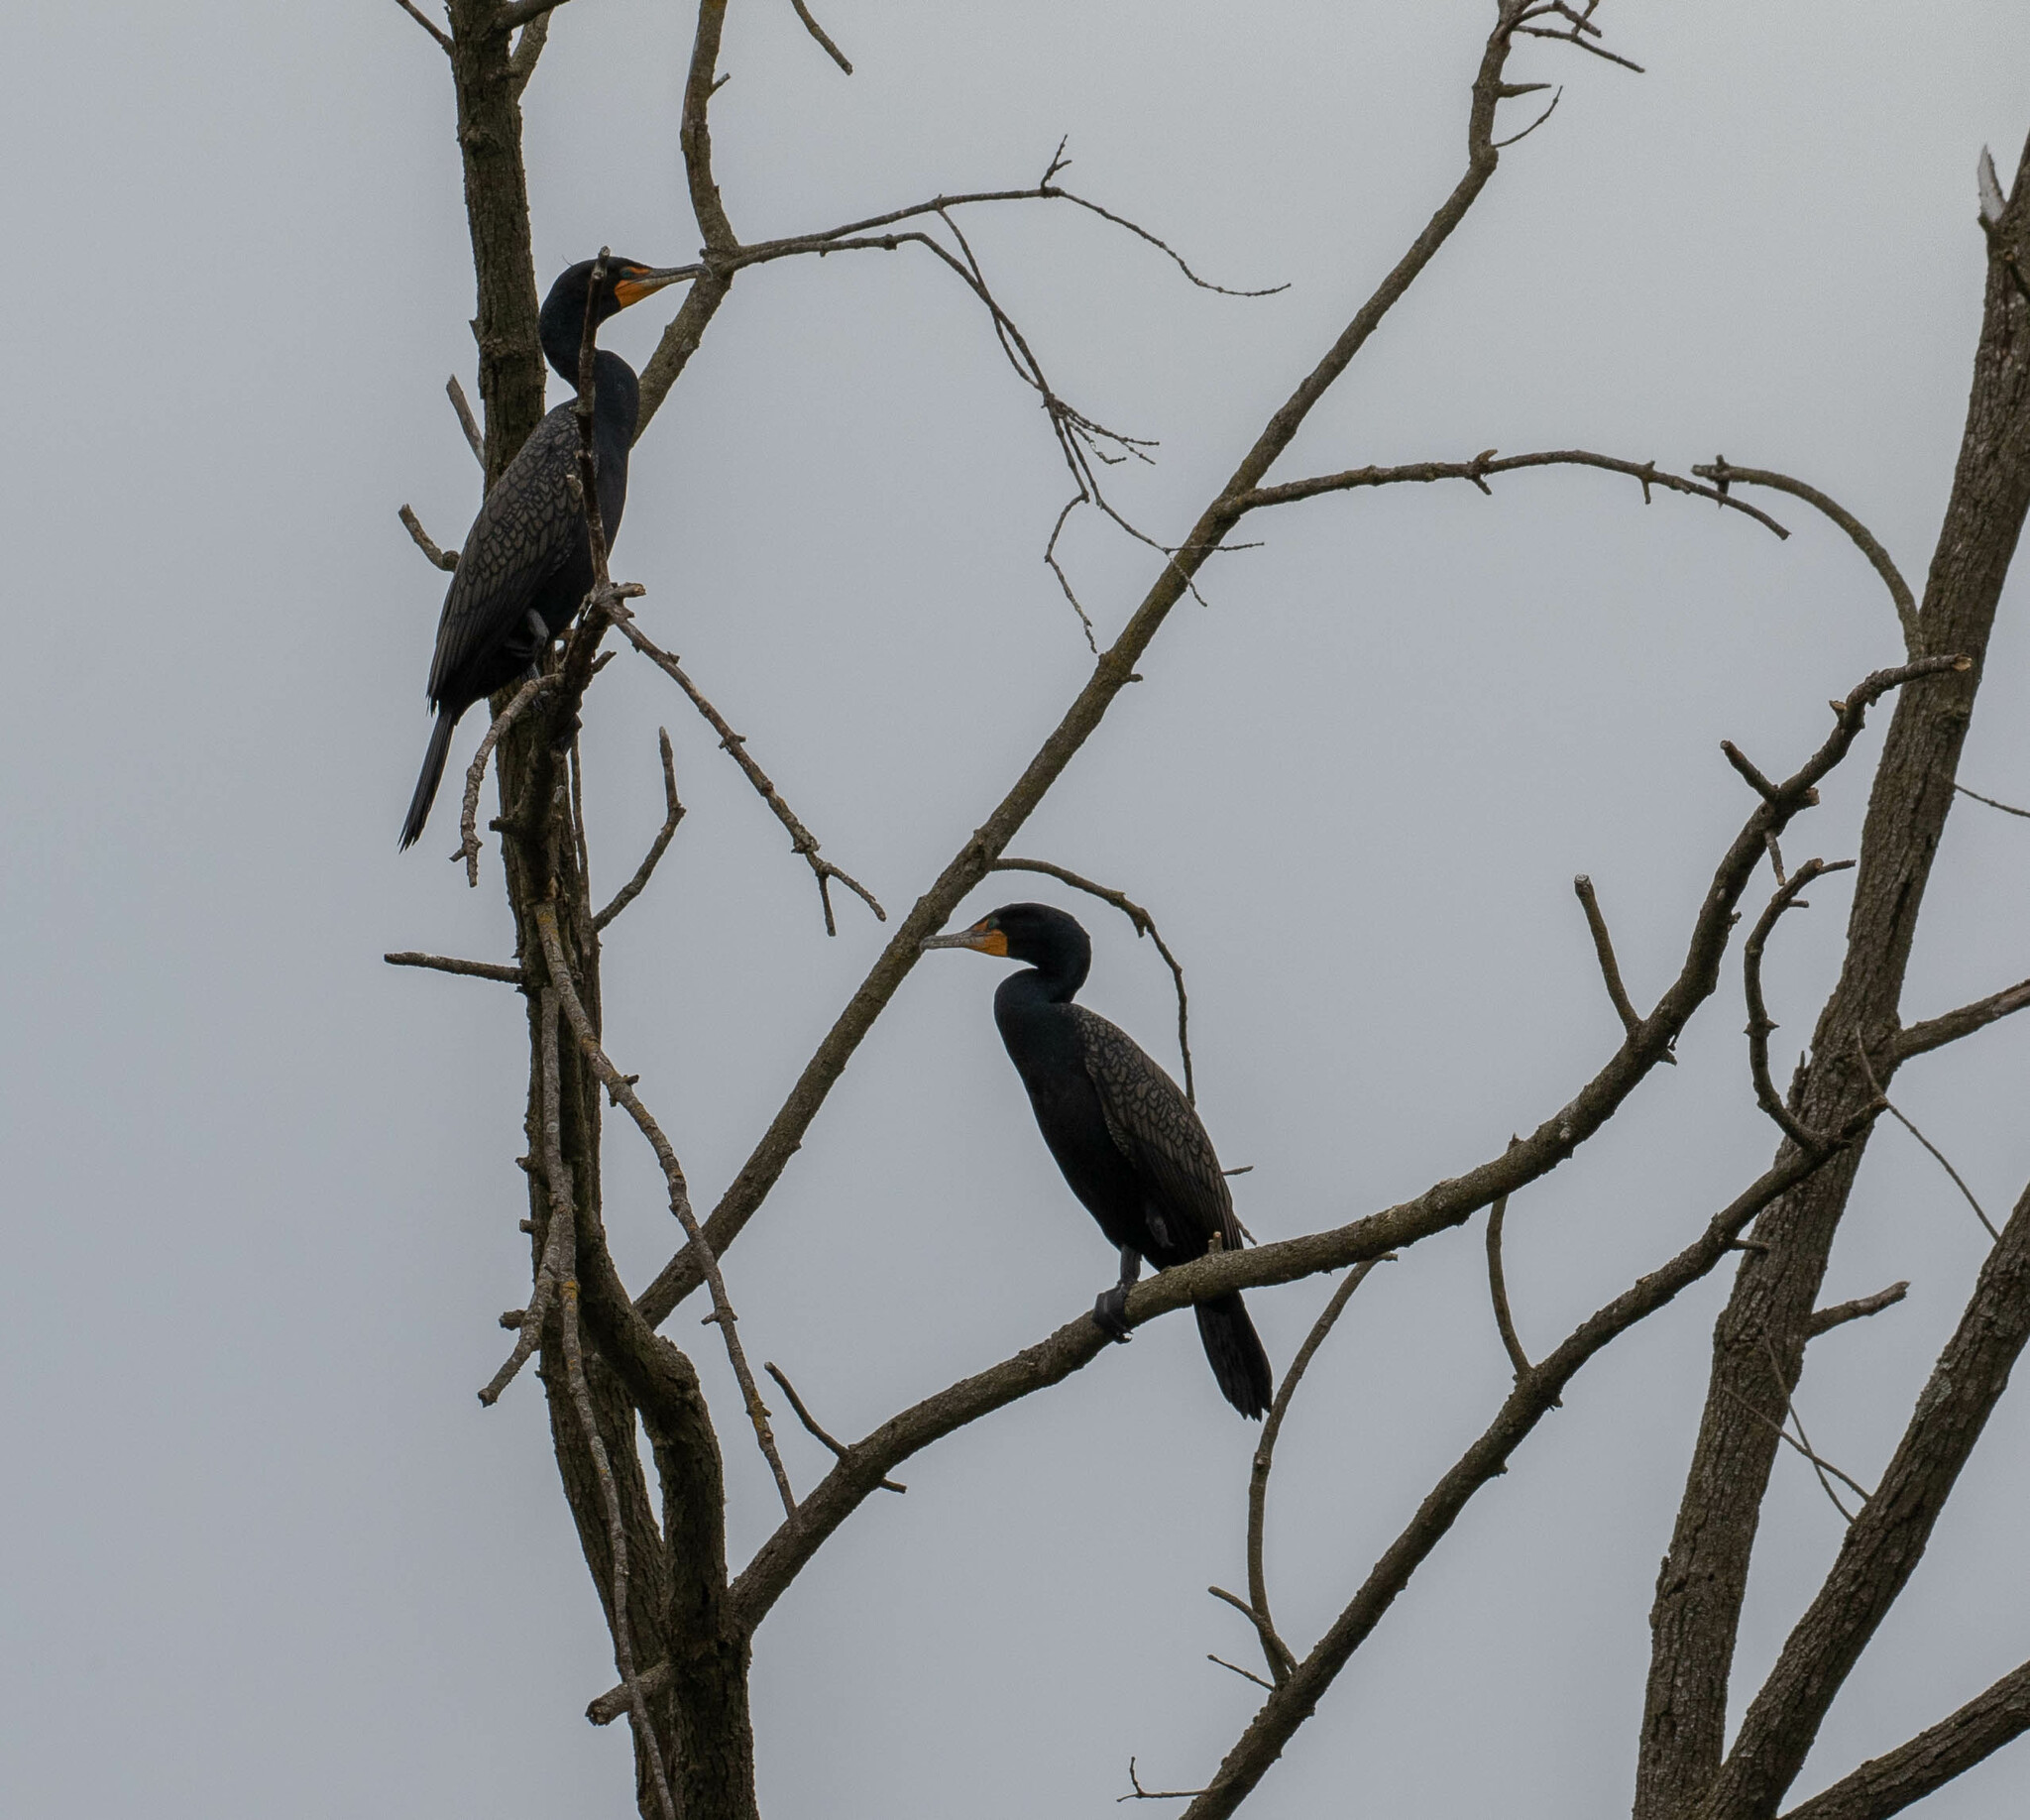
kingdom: Animalia
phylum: Chordata
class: Aves
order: Suliformes
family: Phalacrocoracidae
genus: Phalacrocorax
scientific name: Phalacrocorax auritus
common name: Double-crested cormorant
